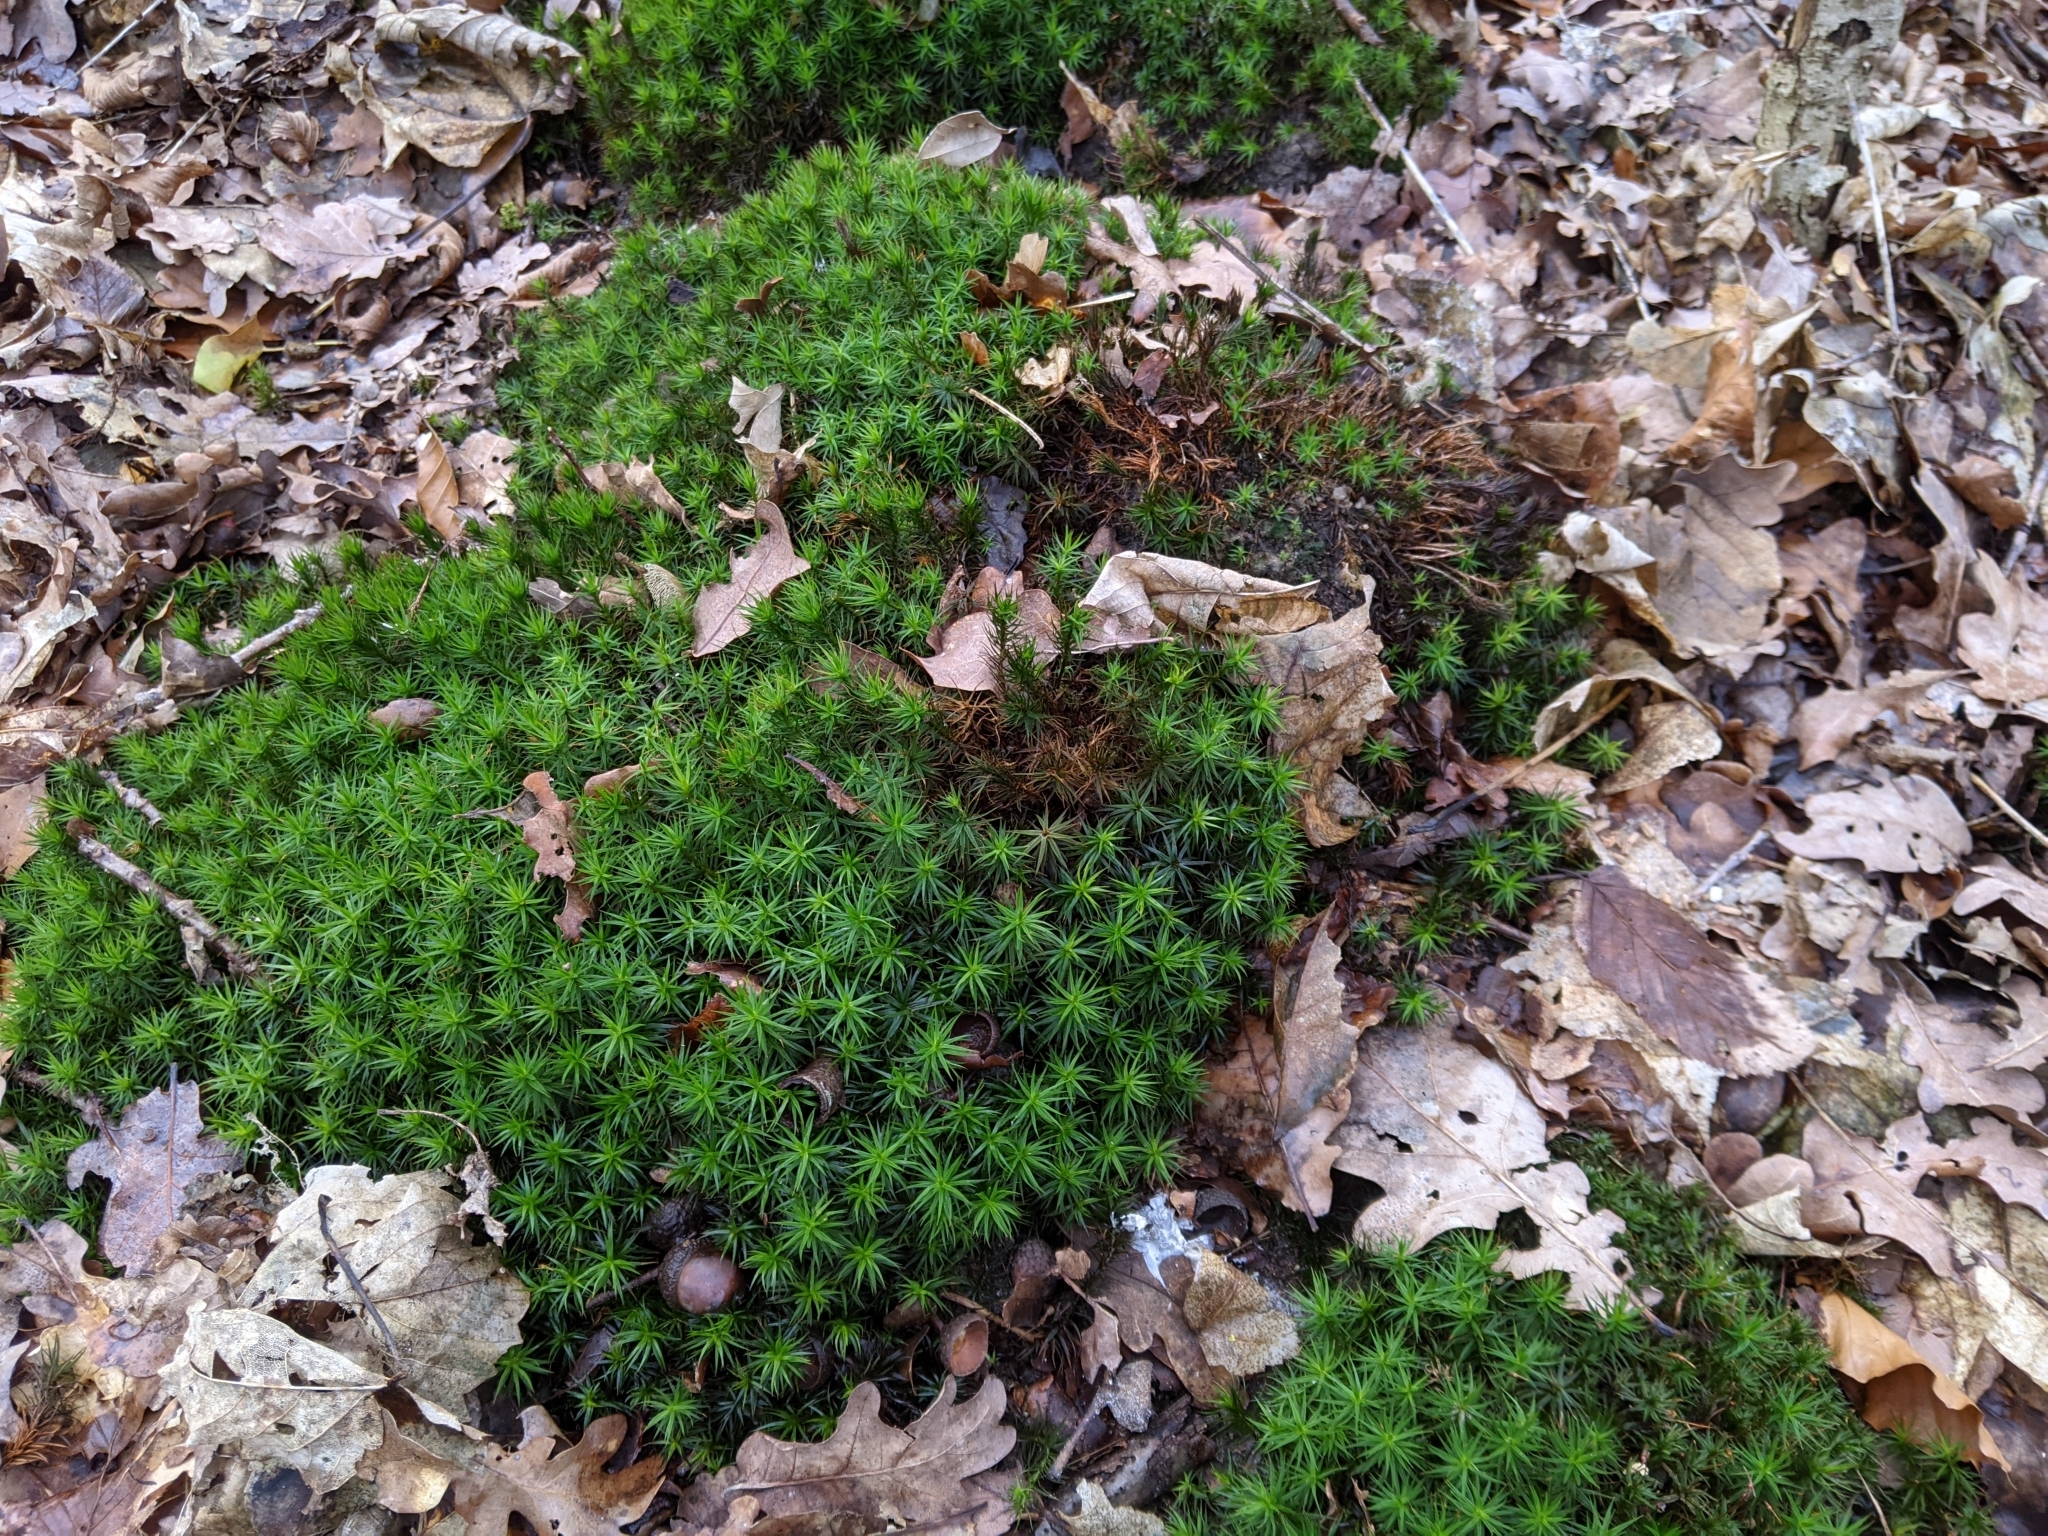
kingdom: Plantae
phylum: Bryophyta
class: Polytrichopsida
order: Polytrichales
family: Polytrichaceae
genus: Polytrichum
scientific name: Polytrichum formosum
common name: Bank haircap moss
